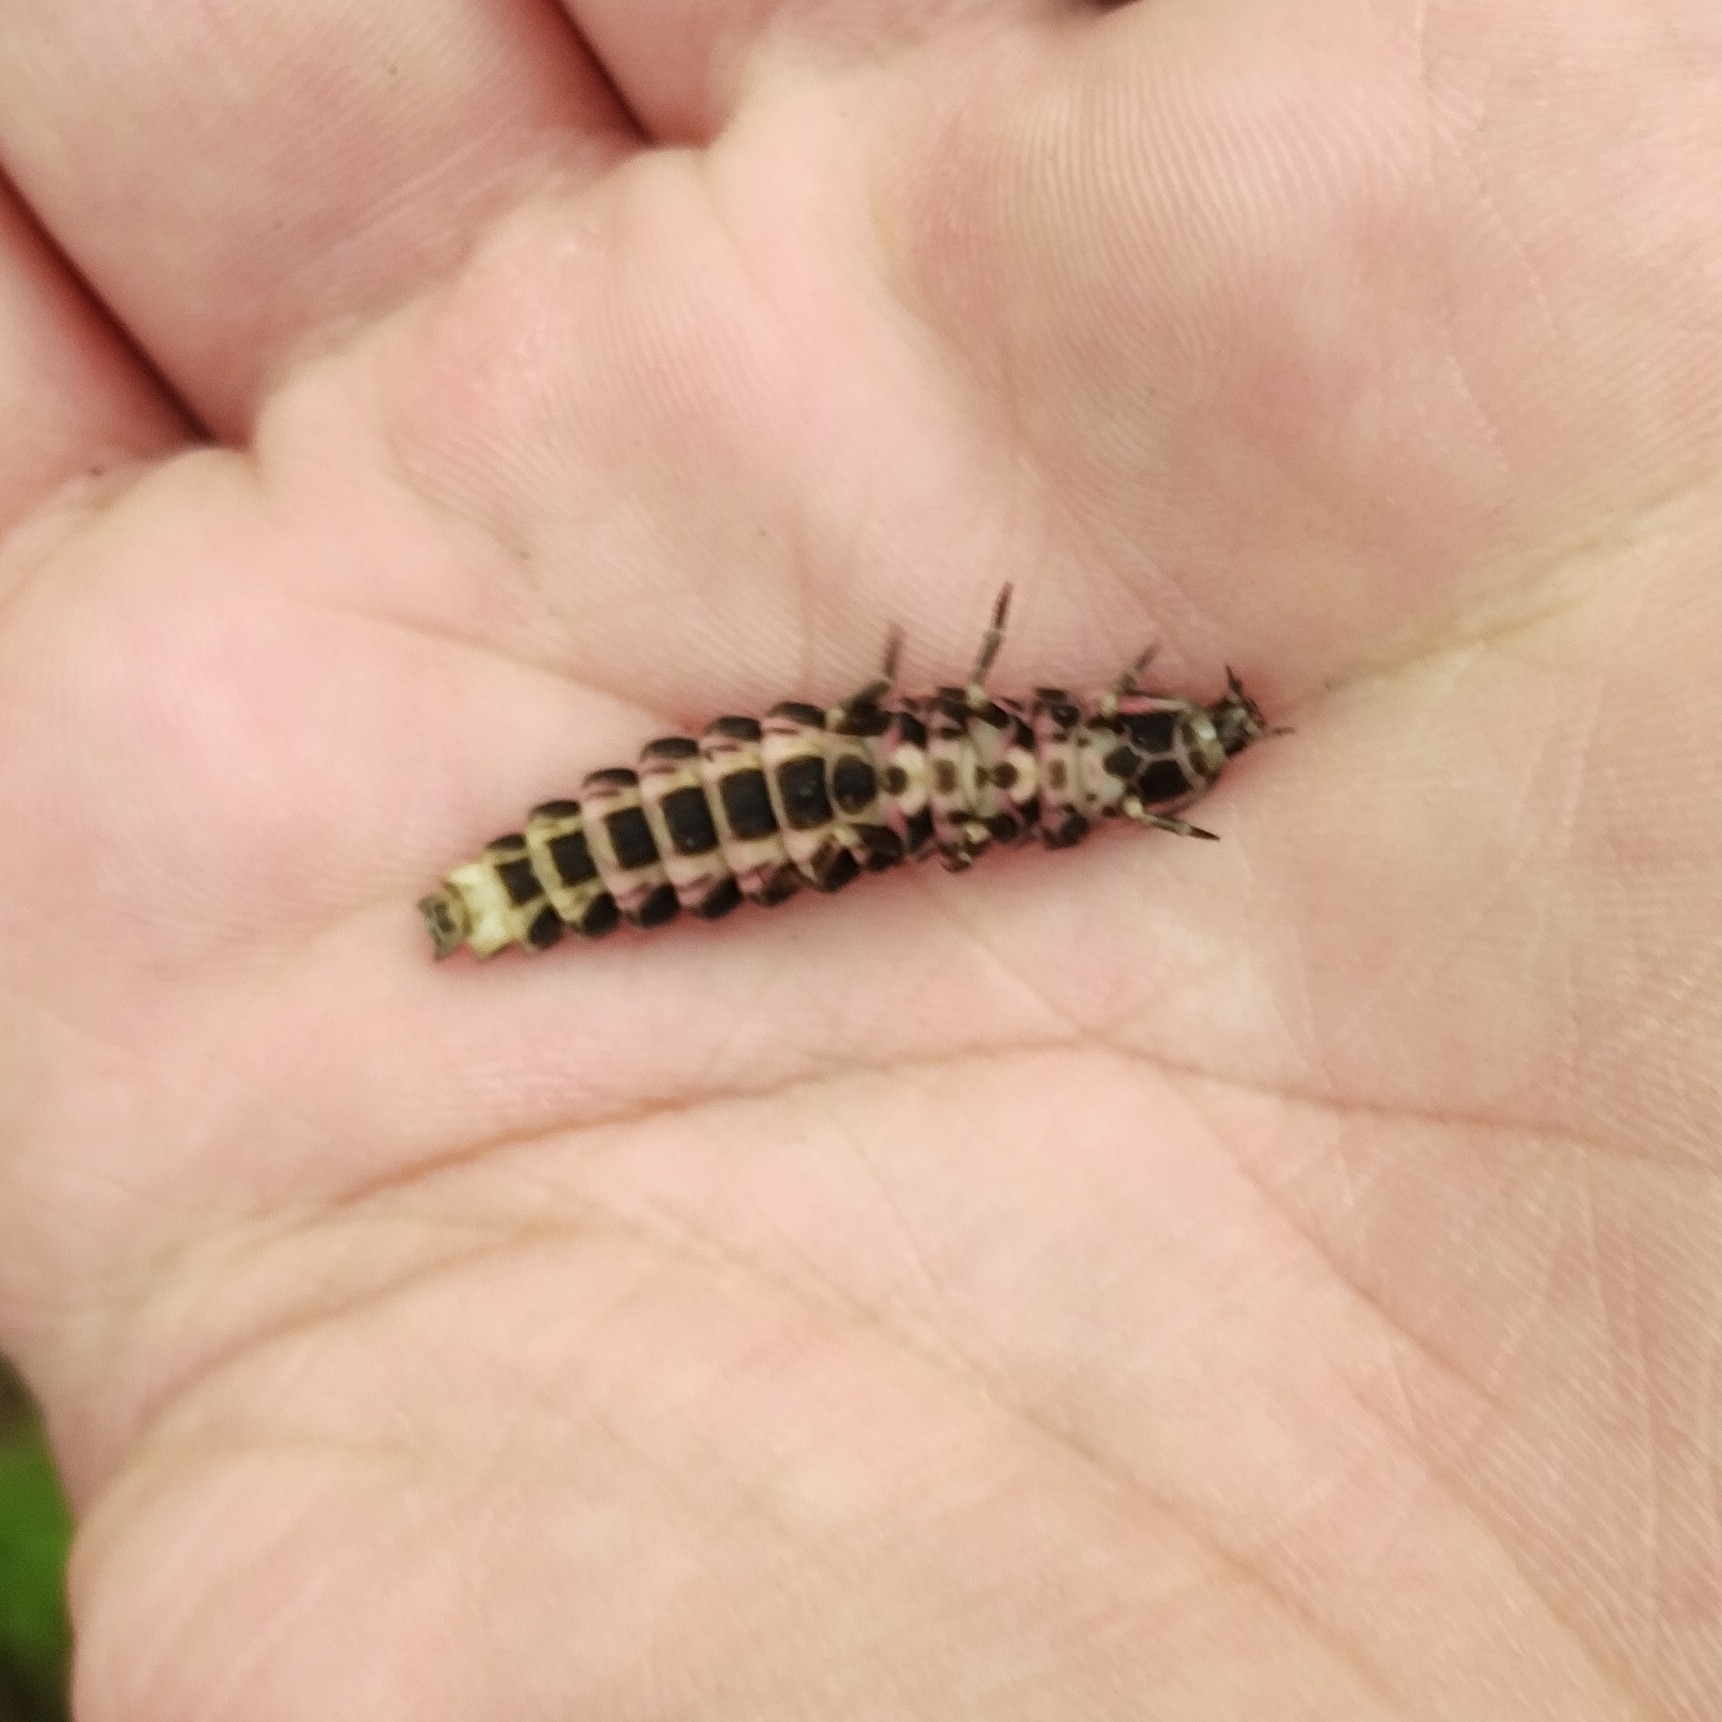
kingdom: Animalia
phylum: Arthropoda
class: Insecta
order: Coleoptera
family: Lampyridae
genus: Lampyris
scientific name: Lampyris noctiluca
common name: Glow-worm
